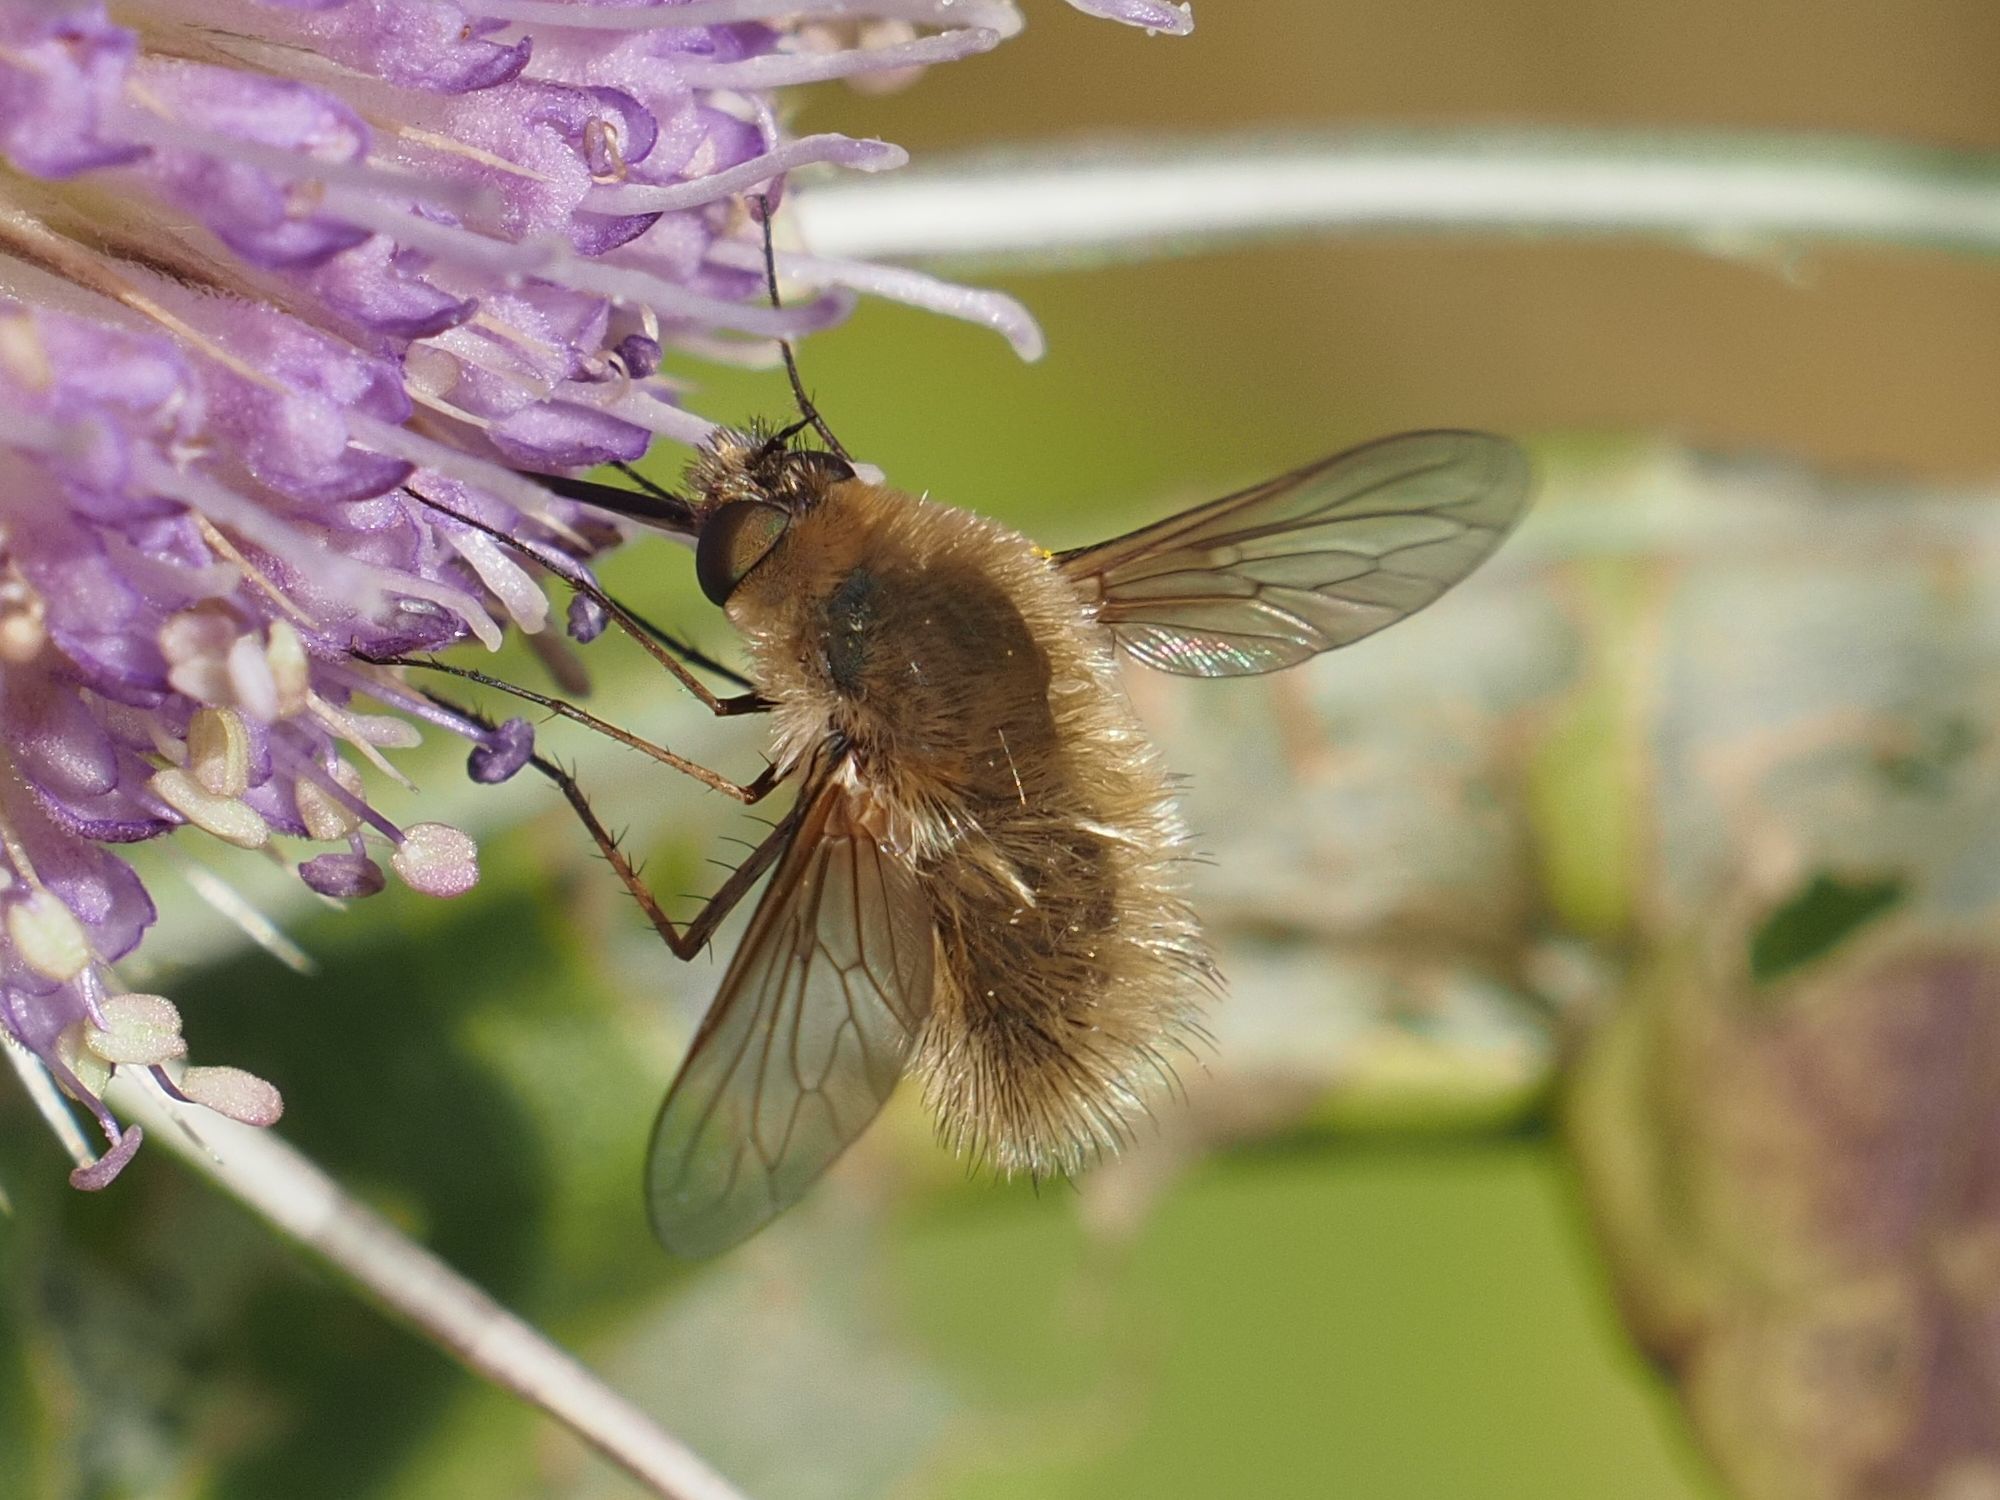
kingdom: Animalia
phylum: Arthropoda
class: Insecta
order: Diptera
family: Bombyliidae
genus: Systoechus
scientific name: Systoechus ctenopterus
